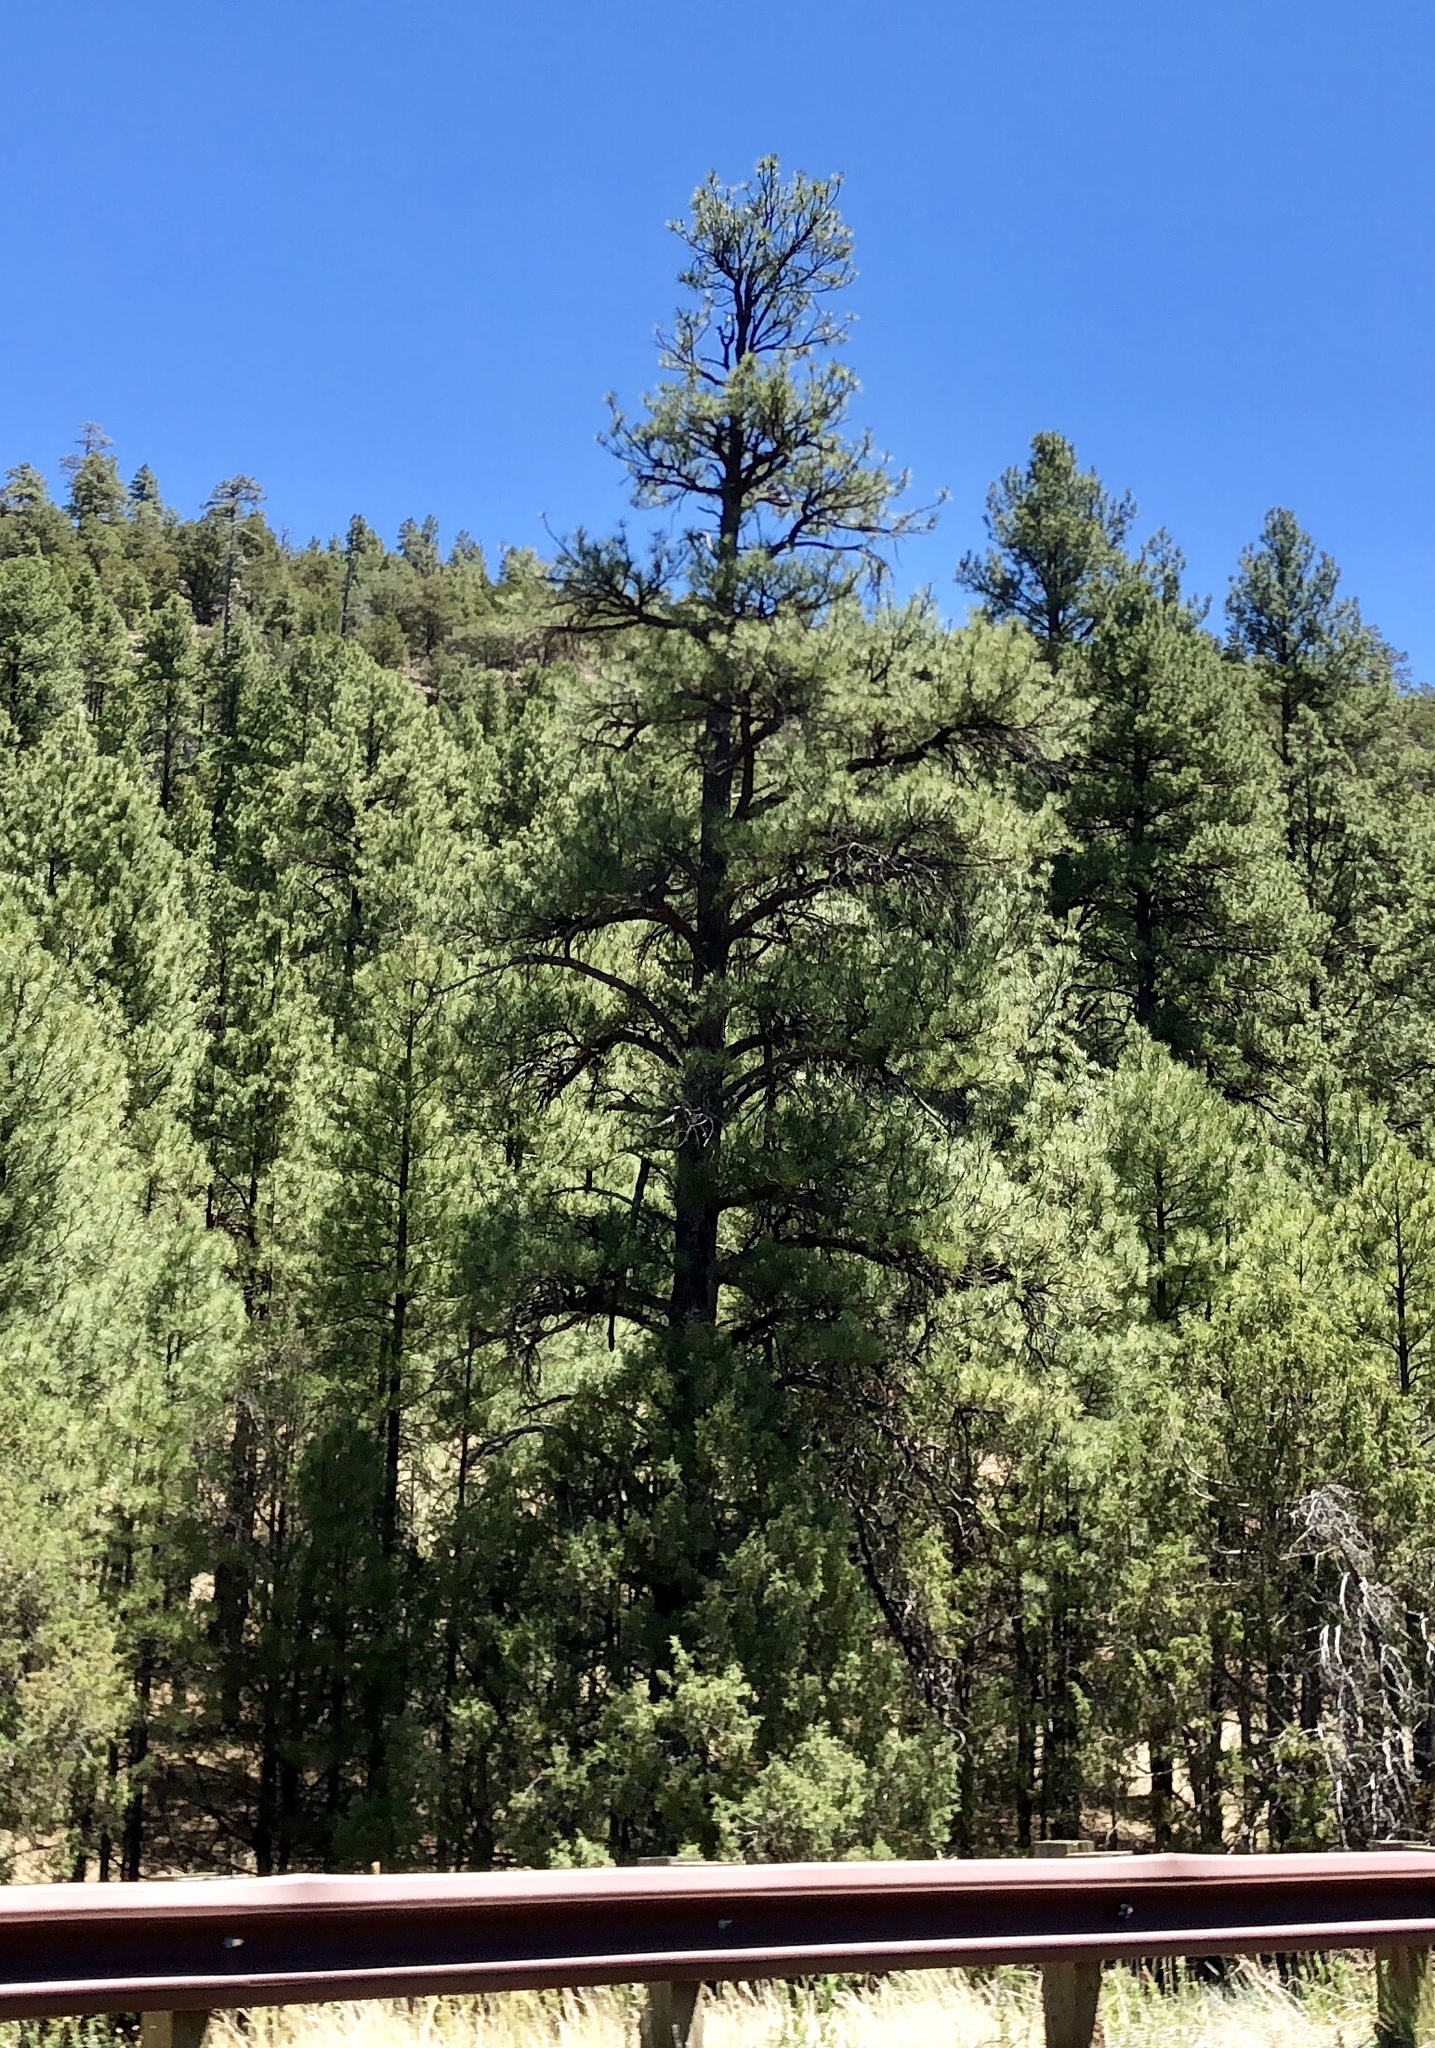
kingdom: Plantae
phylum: Tracheophyta
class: Pinopsida
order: Pinales
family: Pinaceae
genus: Pinus
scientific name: Pinus ponderosa
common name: Western yellow-pine
